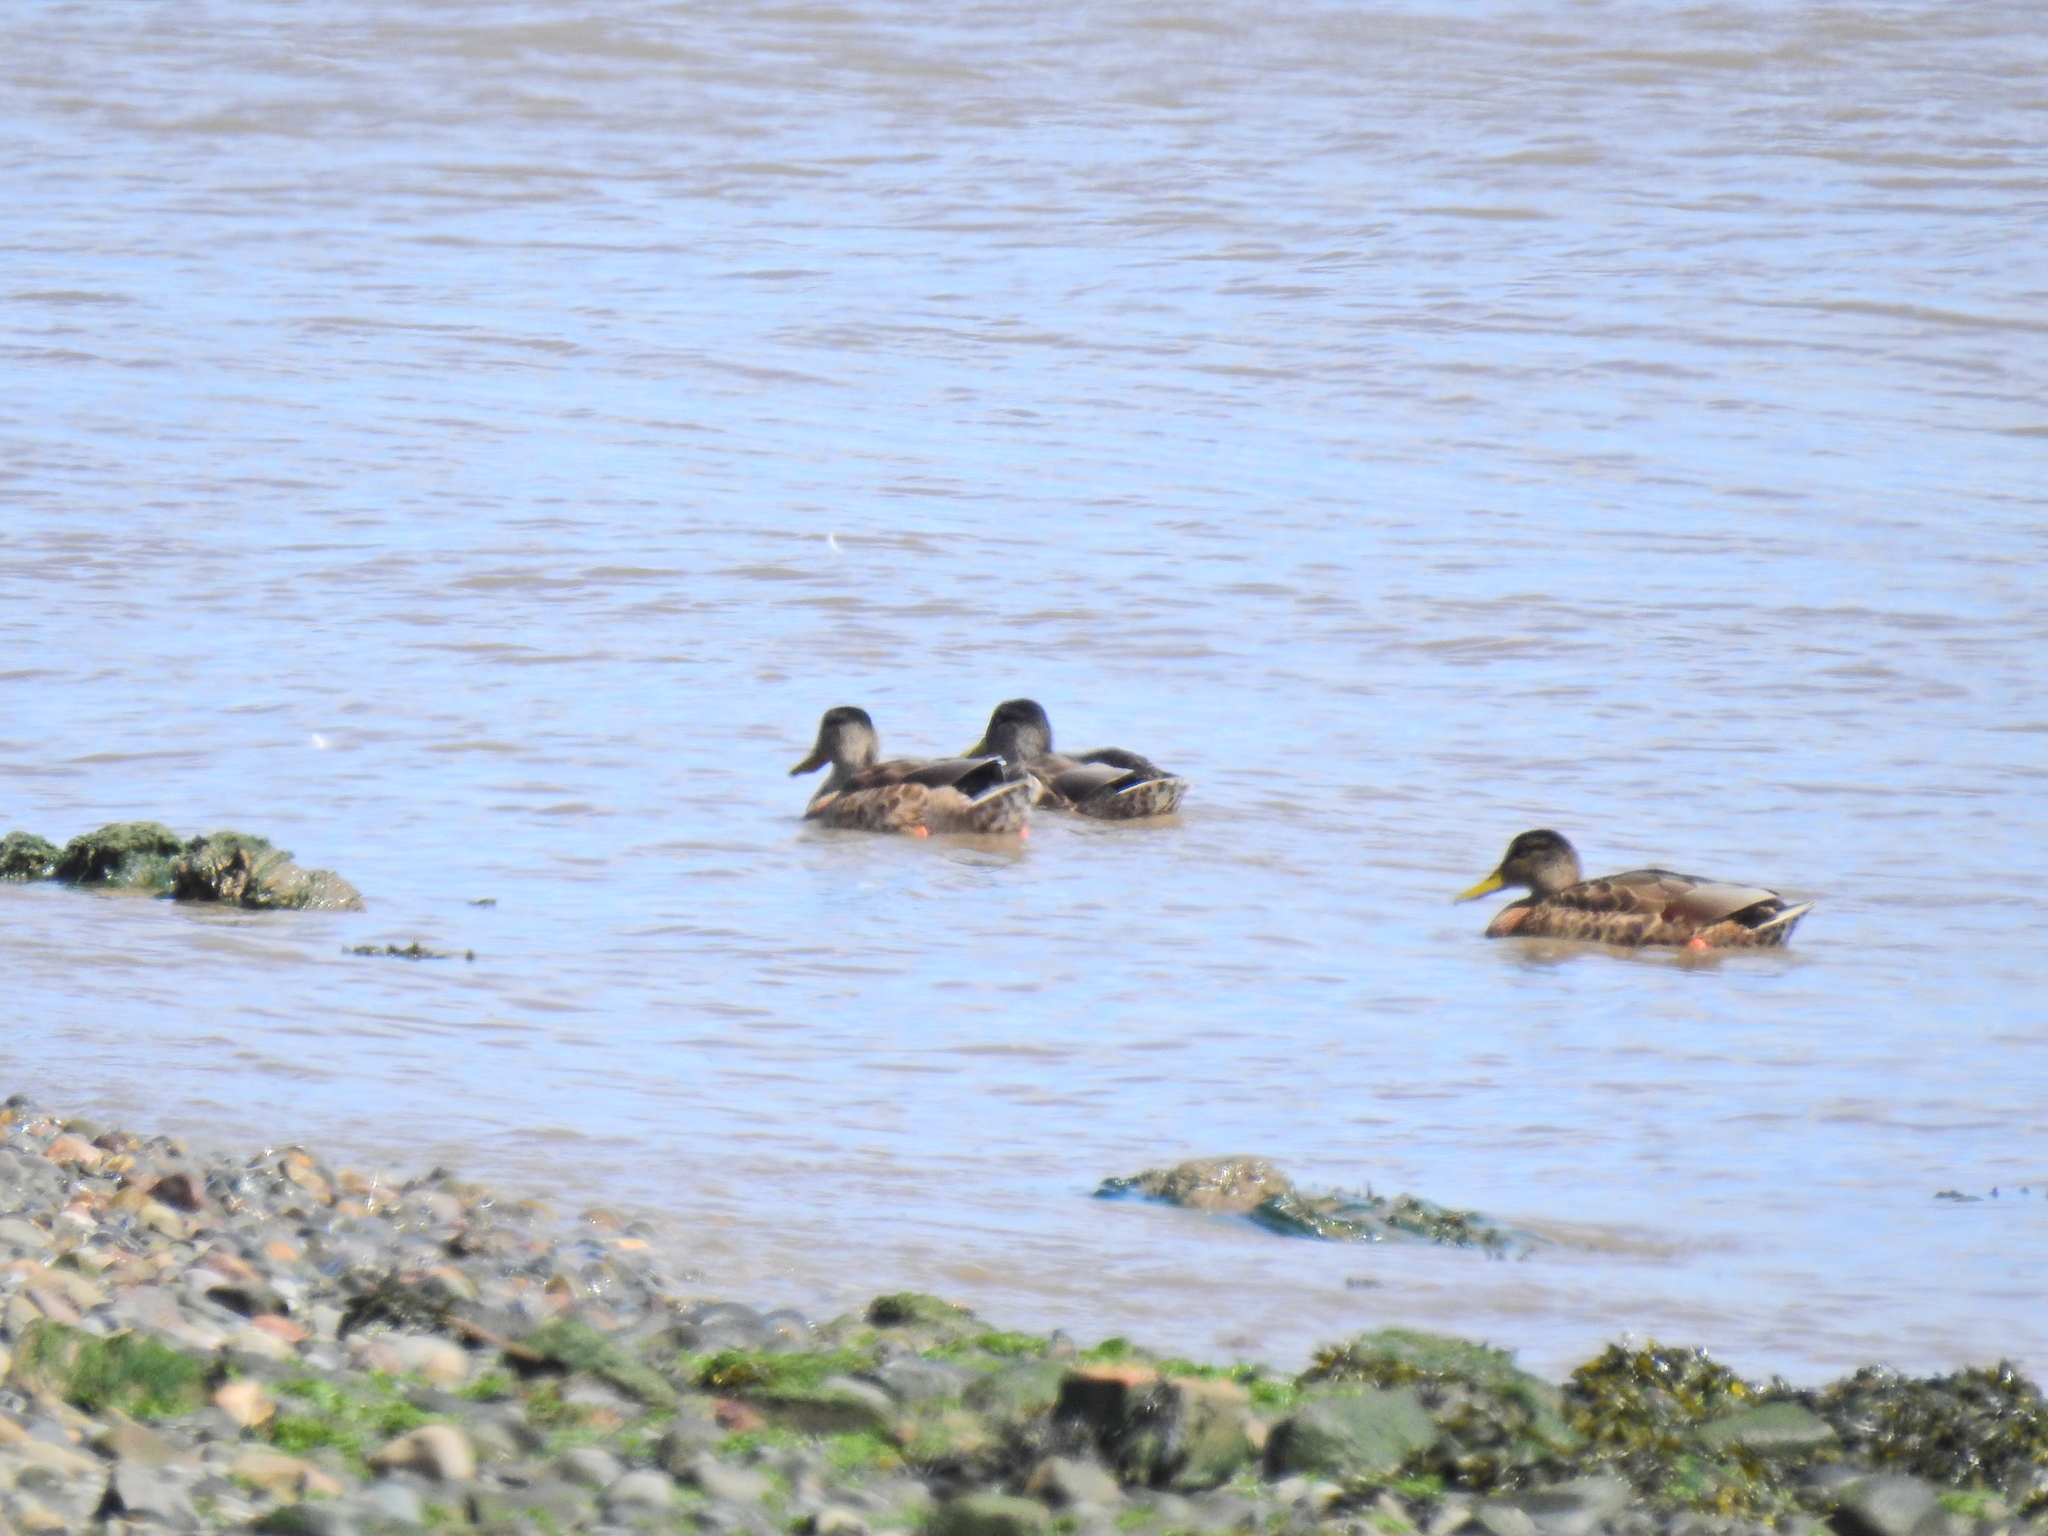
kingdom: Animalia
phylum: Chordata
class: Aves
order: Anseriformes
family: Anatidae
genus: Anas
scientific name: Anas platyrhynchos
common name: Mallard
